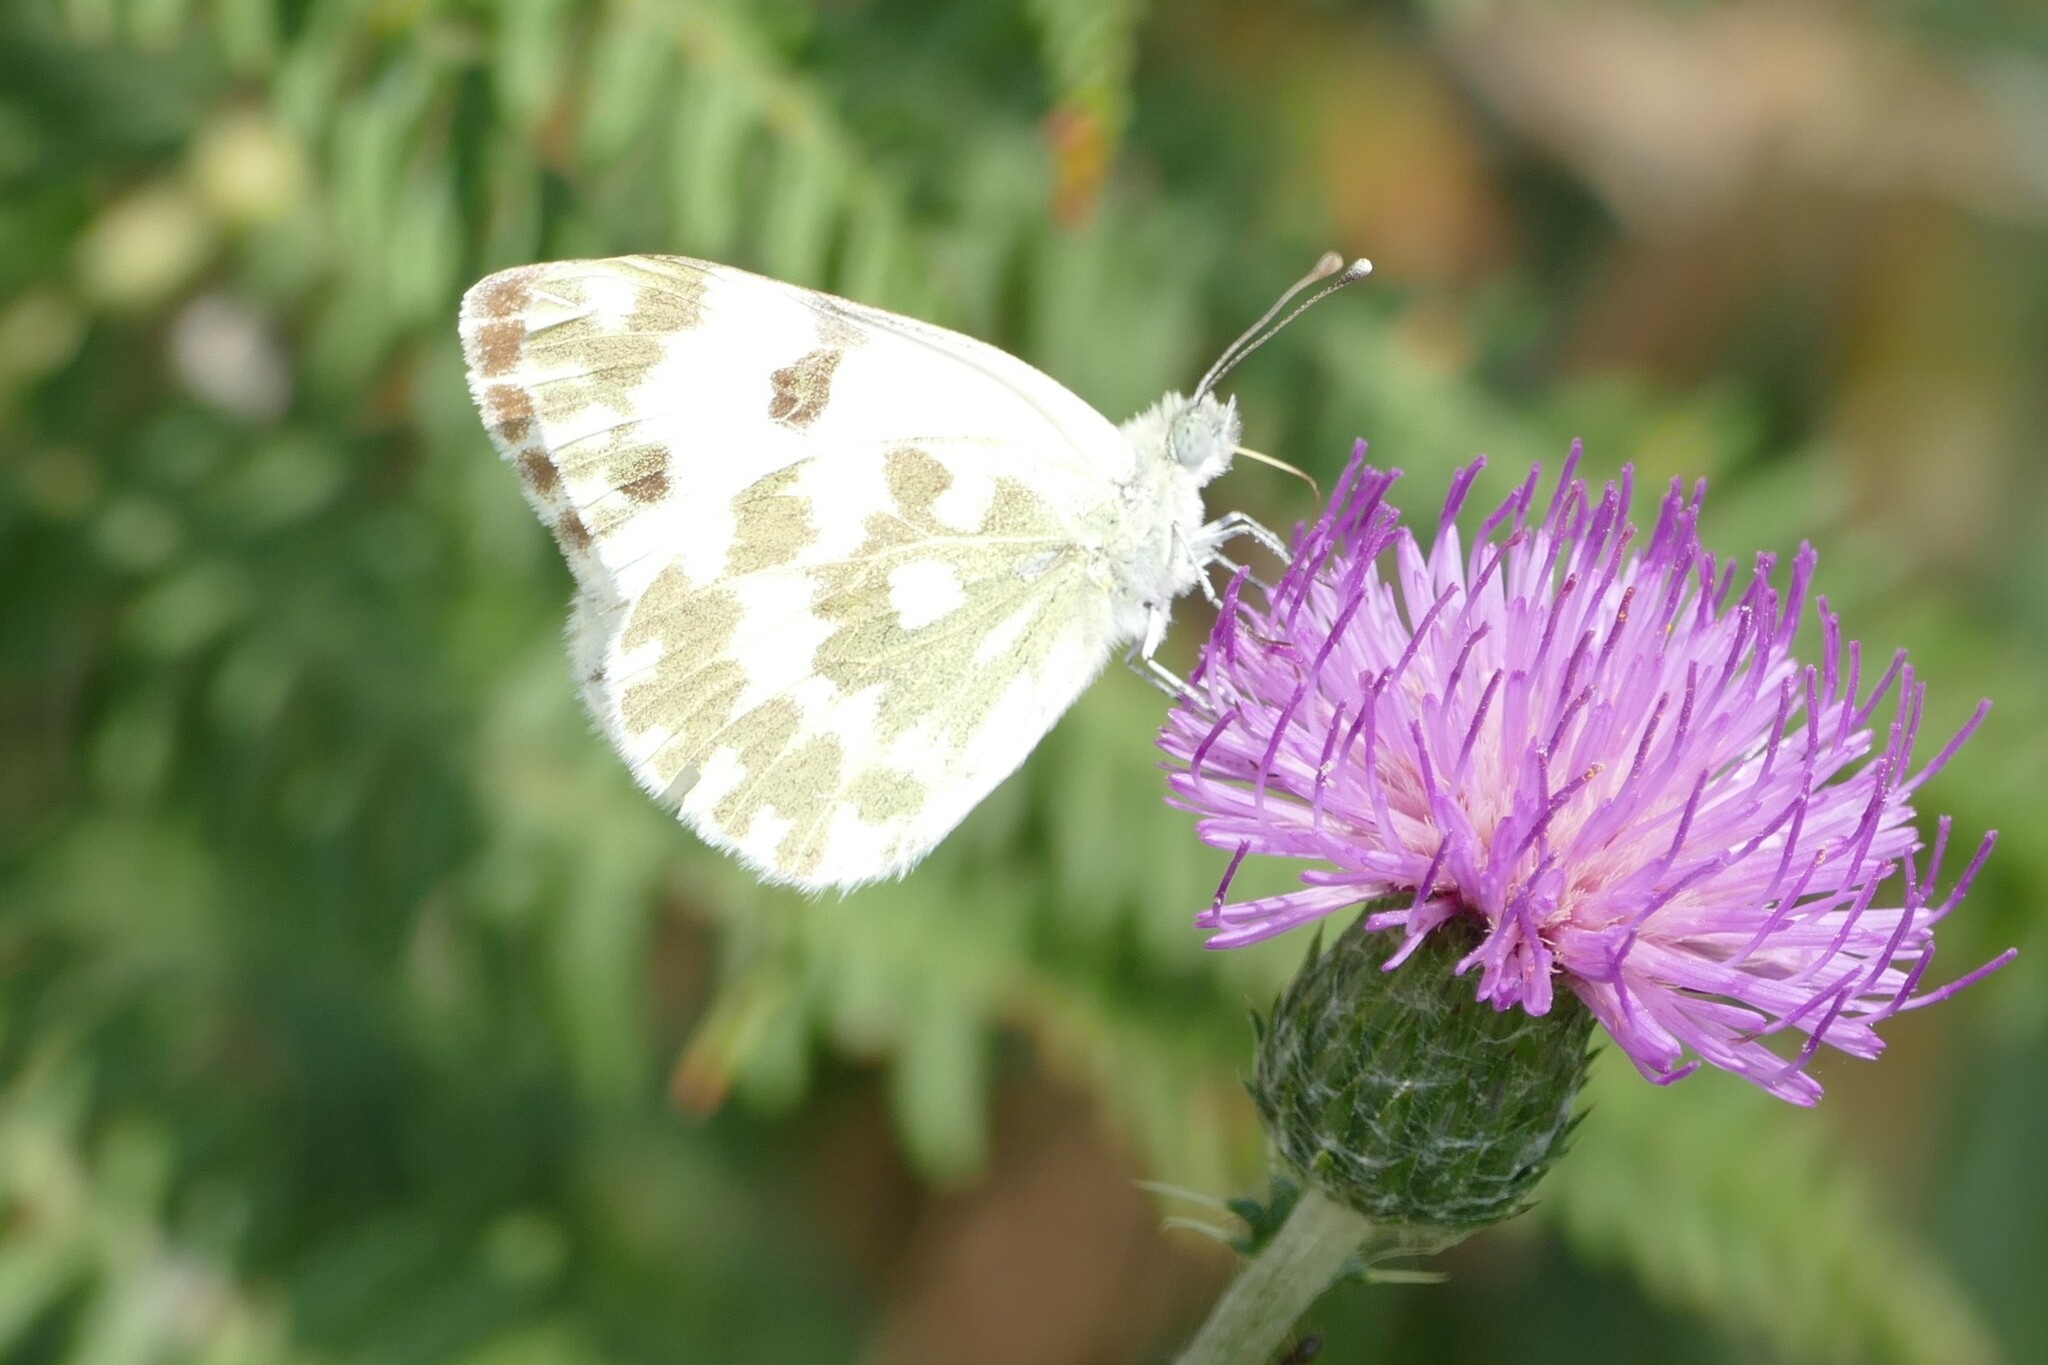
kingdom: Animalia
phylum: Arthropoda
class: Insecta
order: Lepidoptera
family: Pieridae
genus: Pontia
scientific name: Pontia daplidice
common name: Bath white
